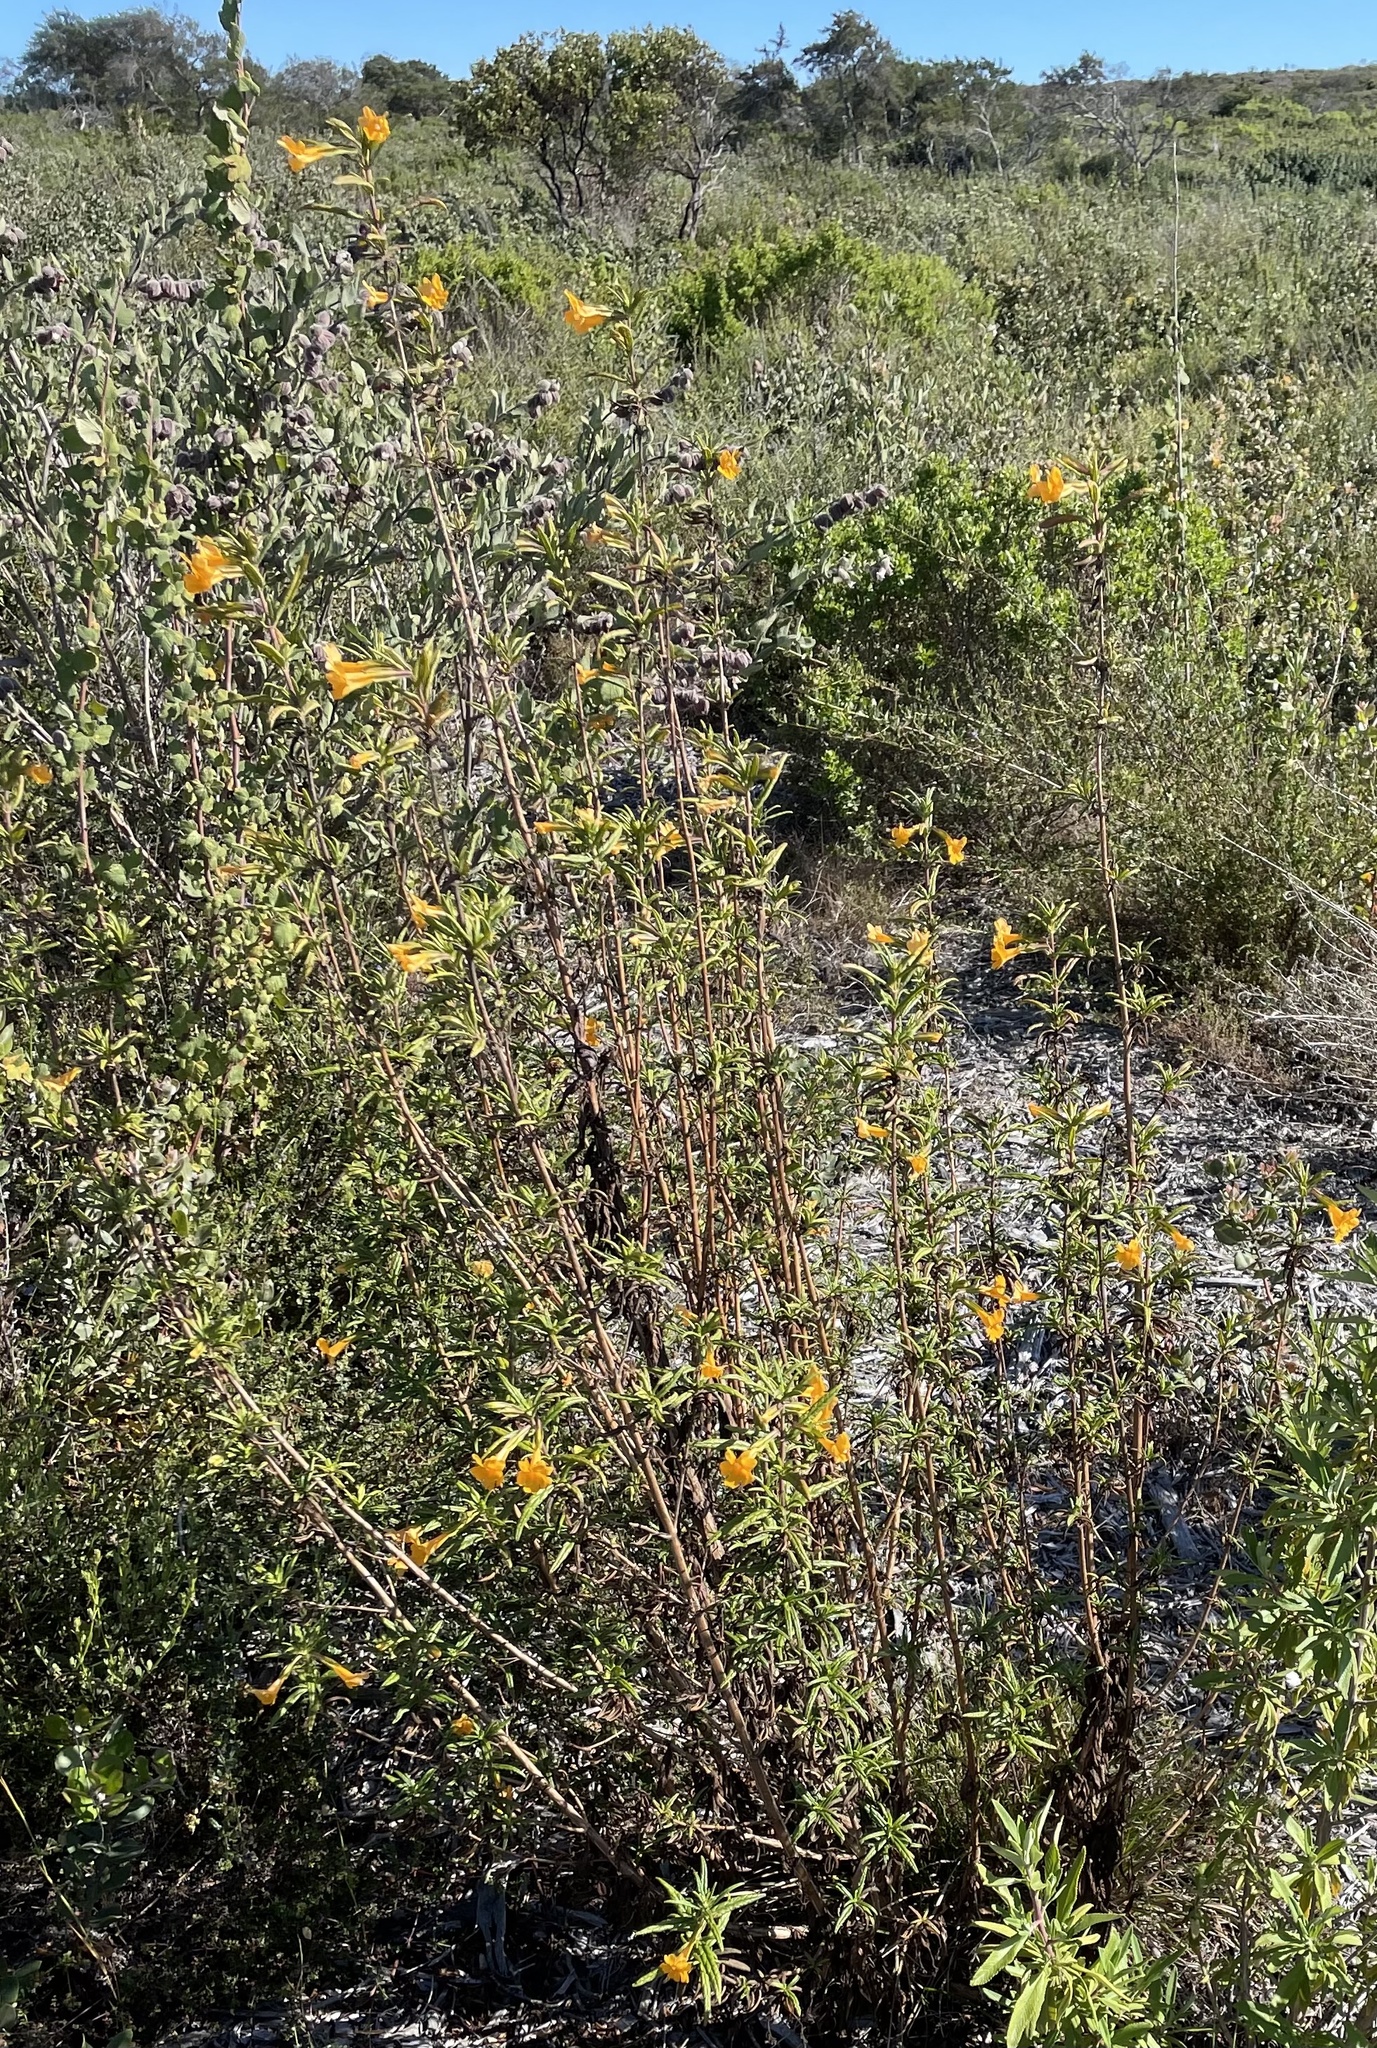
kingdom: Plantae
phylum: Tracheophyta
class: Magnoliopsida
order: Lamiales
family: Phrymaceae
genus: Diplacus
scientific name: Diplacus aurantiacus
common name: Bush monkey-flower
